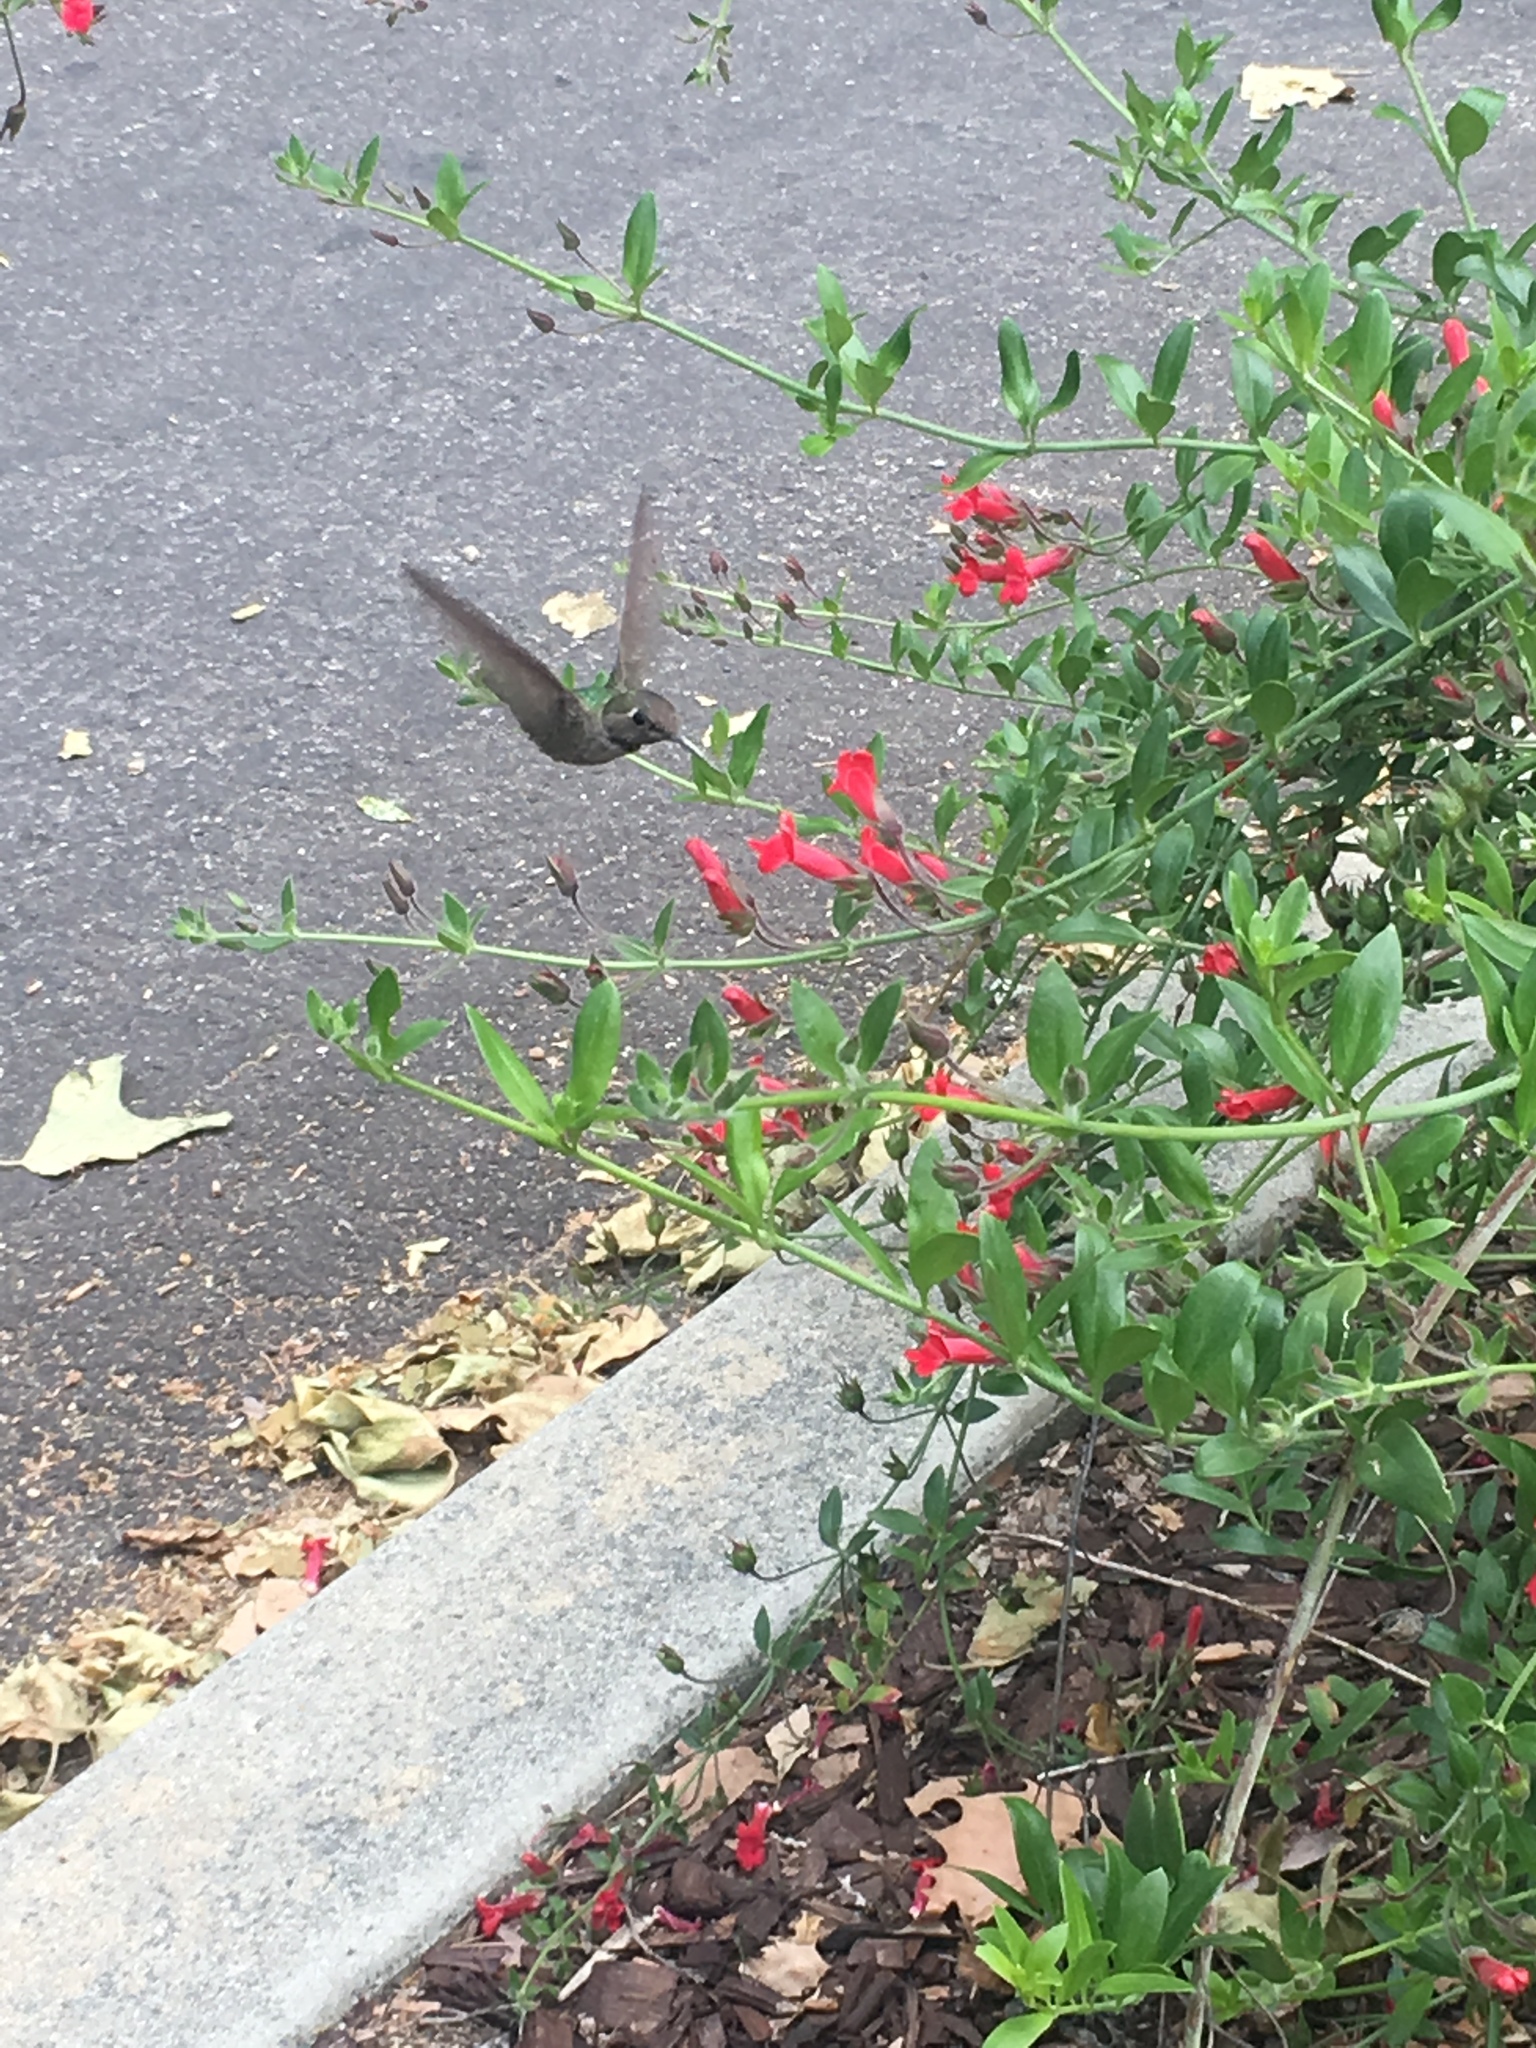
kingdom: Animalia
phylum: Chordata
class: Aves
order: Apodiformes
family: Trochilidae
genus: Calypte
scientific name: Calypte anna
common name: Anna's hummingbird
